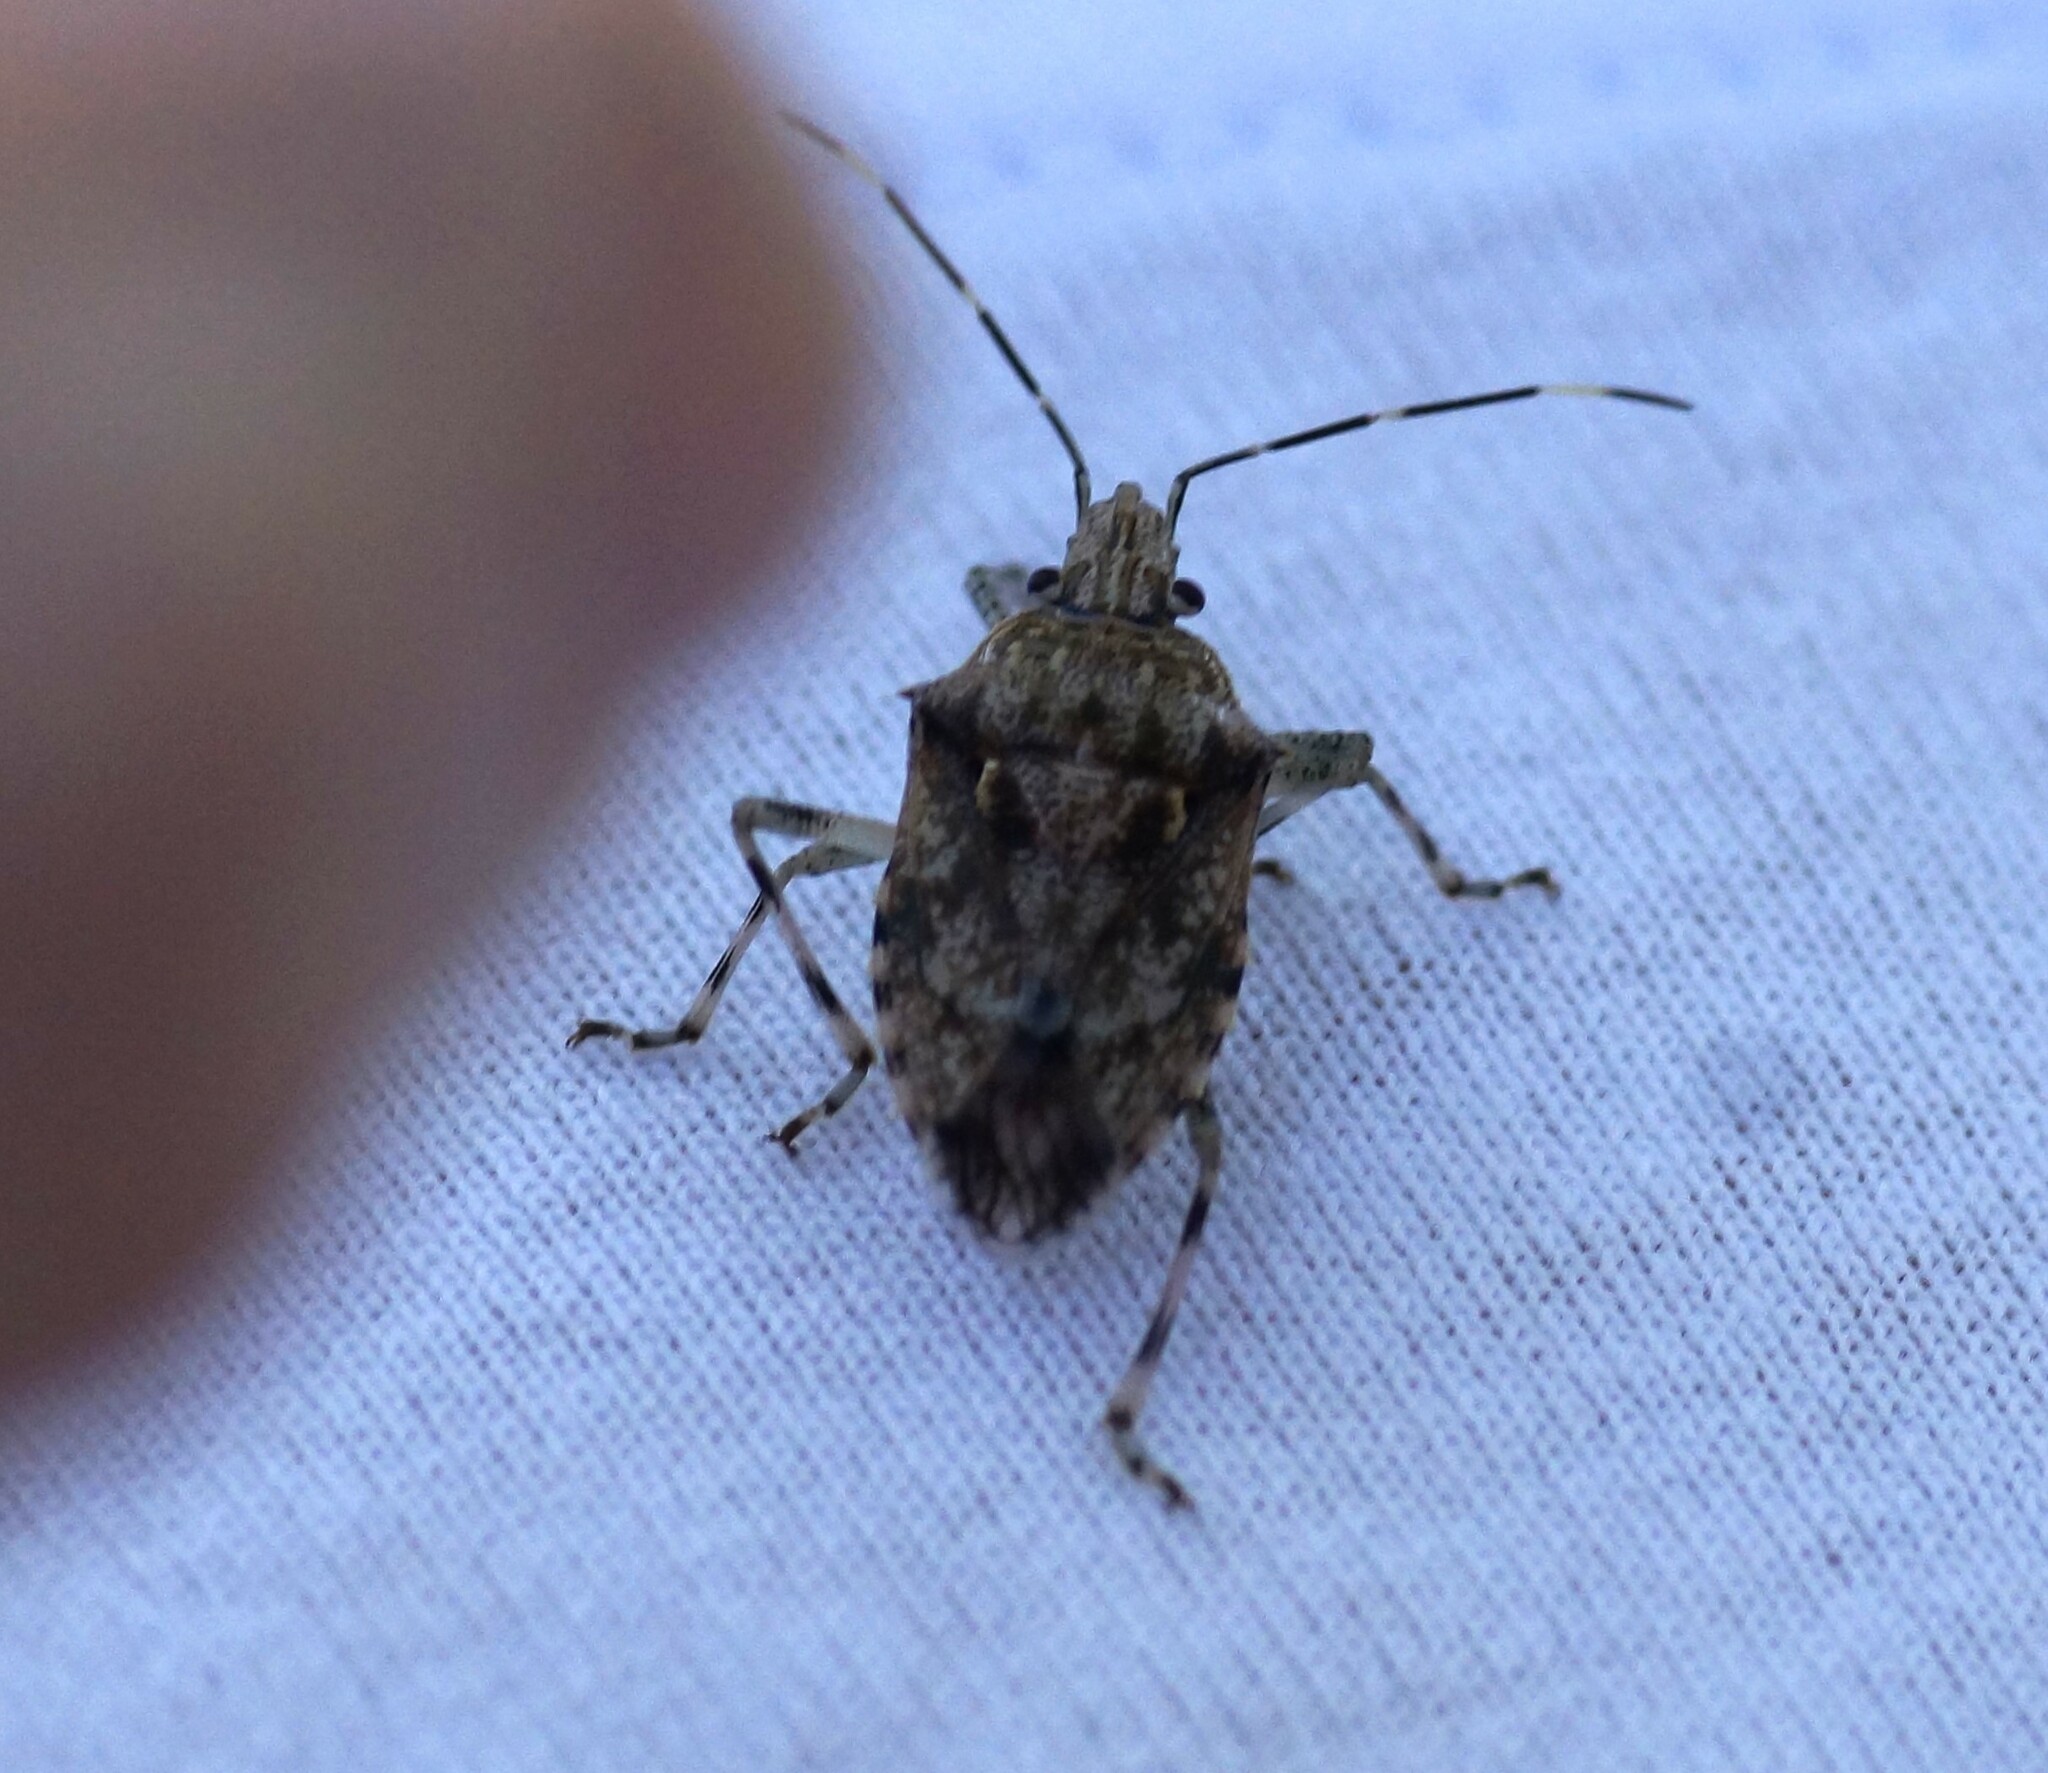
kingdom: Animalia
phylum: Arthropoda
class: Insecta
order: Hemiptera
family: Pentatomidae
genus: Bromocoris
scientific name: Bromocoris
